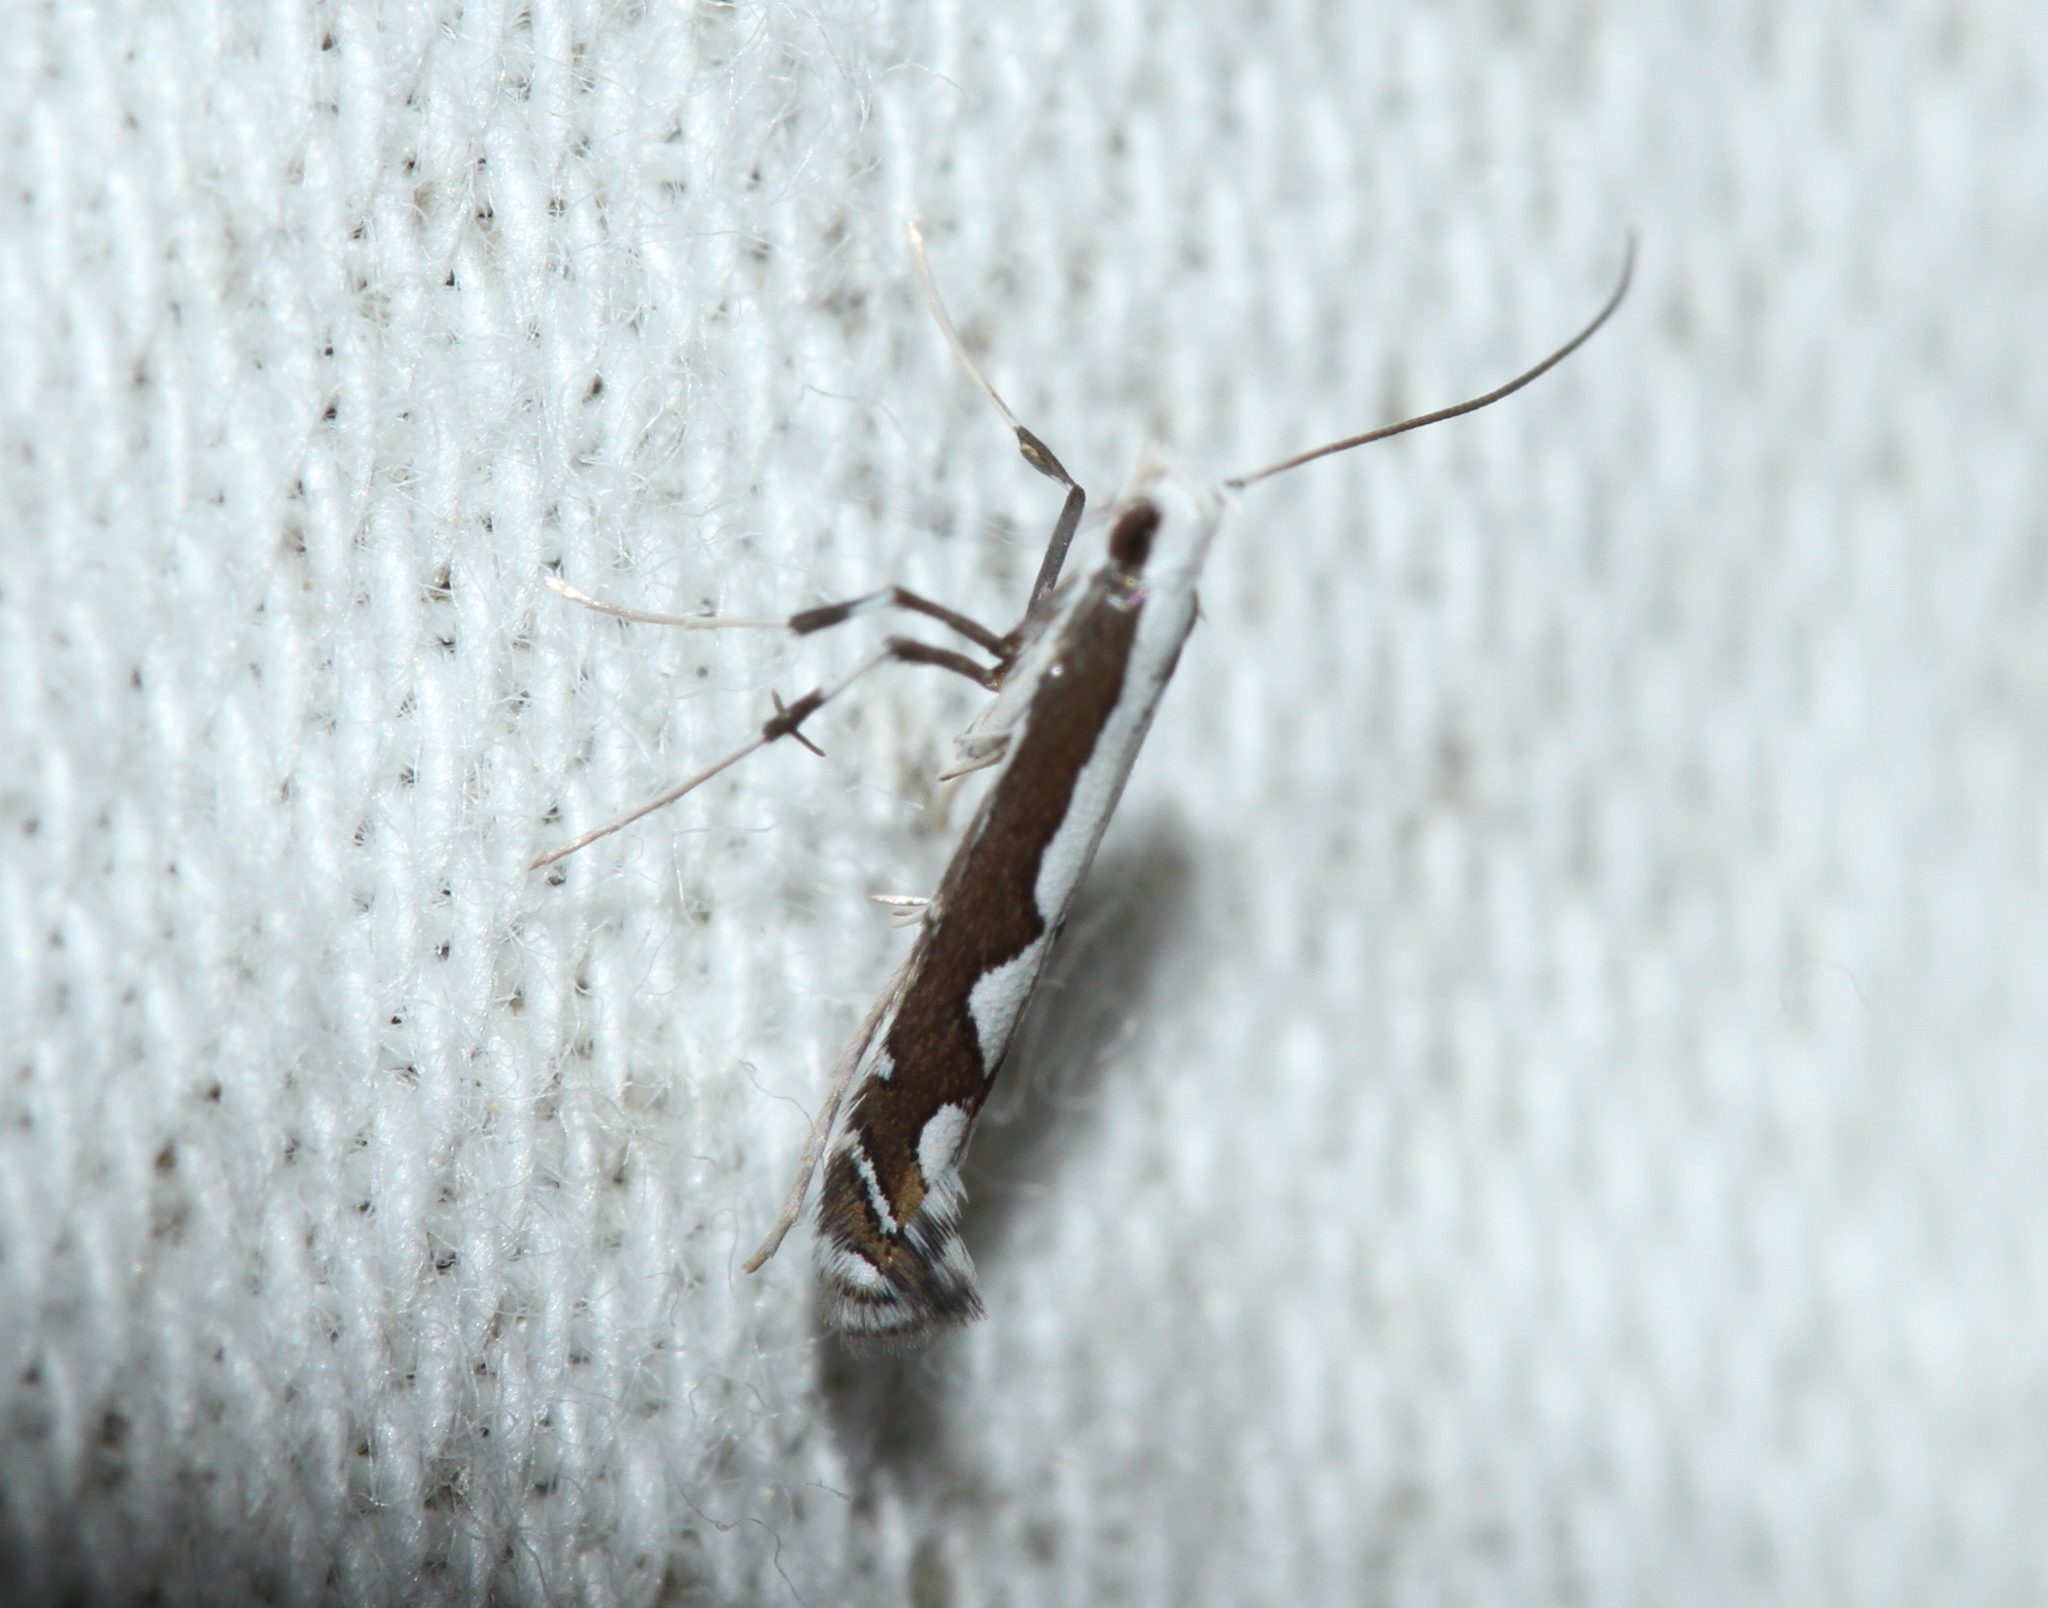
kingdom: Animalia
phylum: Arthropoda
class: Insecta
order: Lepidoptera
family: Gracillariidae
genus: Dialectica
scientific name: Dialectica scalariella
